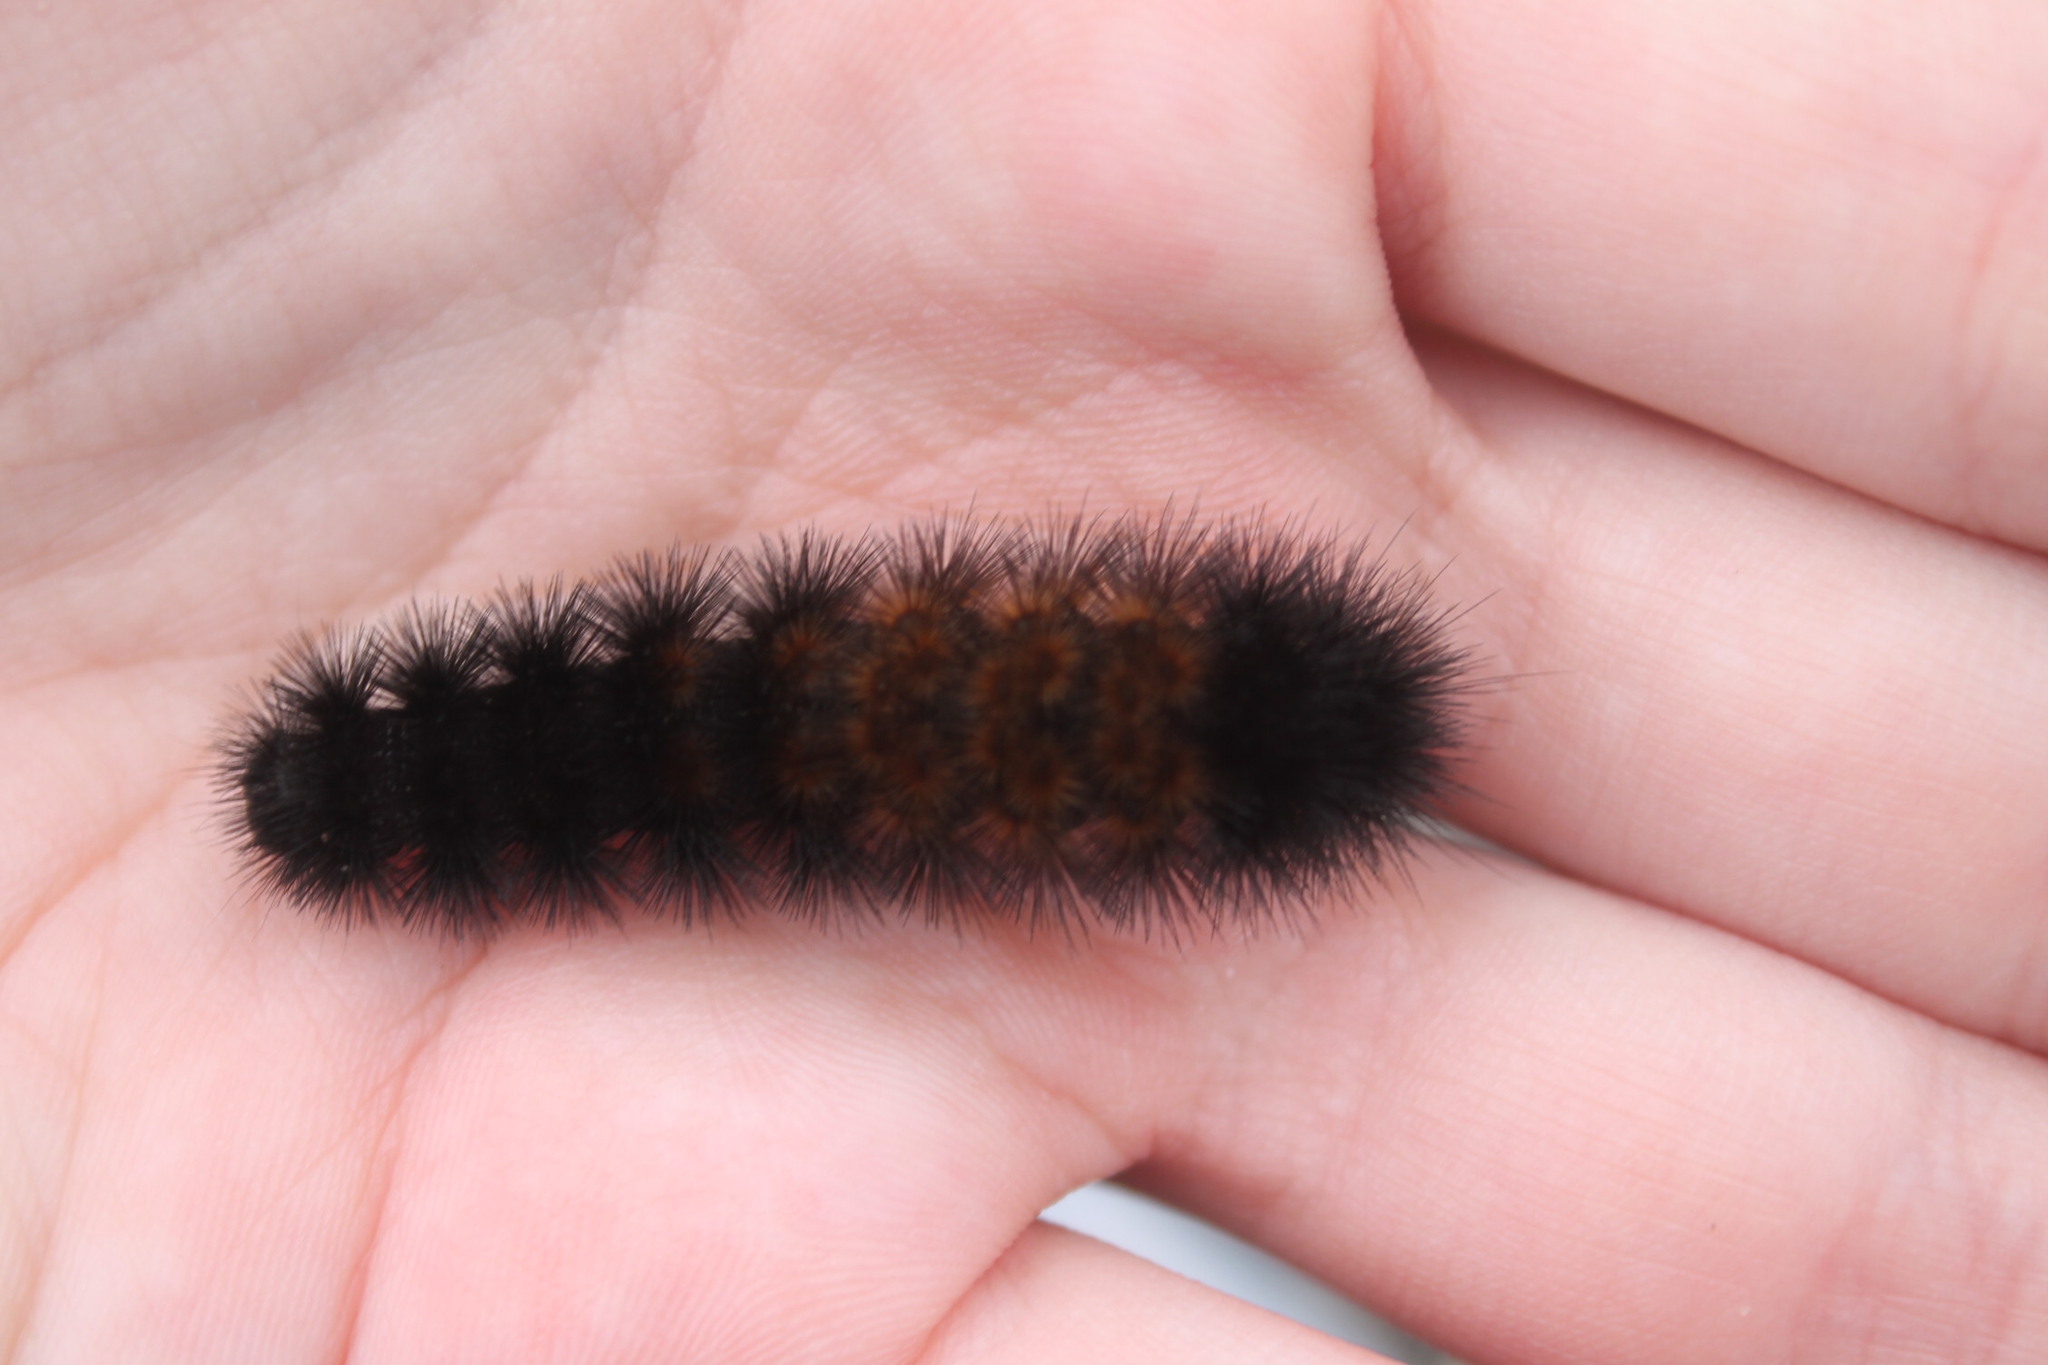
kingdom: Animalia
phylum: Arthropoda
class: Insecta
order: Lepidoptera
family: Erebidae
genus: Pyrrharctia
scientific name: Pyrrharctia isabella
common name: Isabella tiger moth
